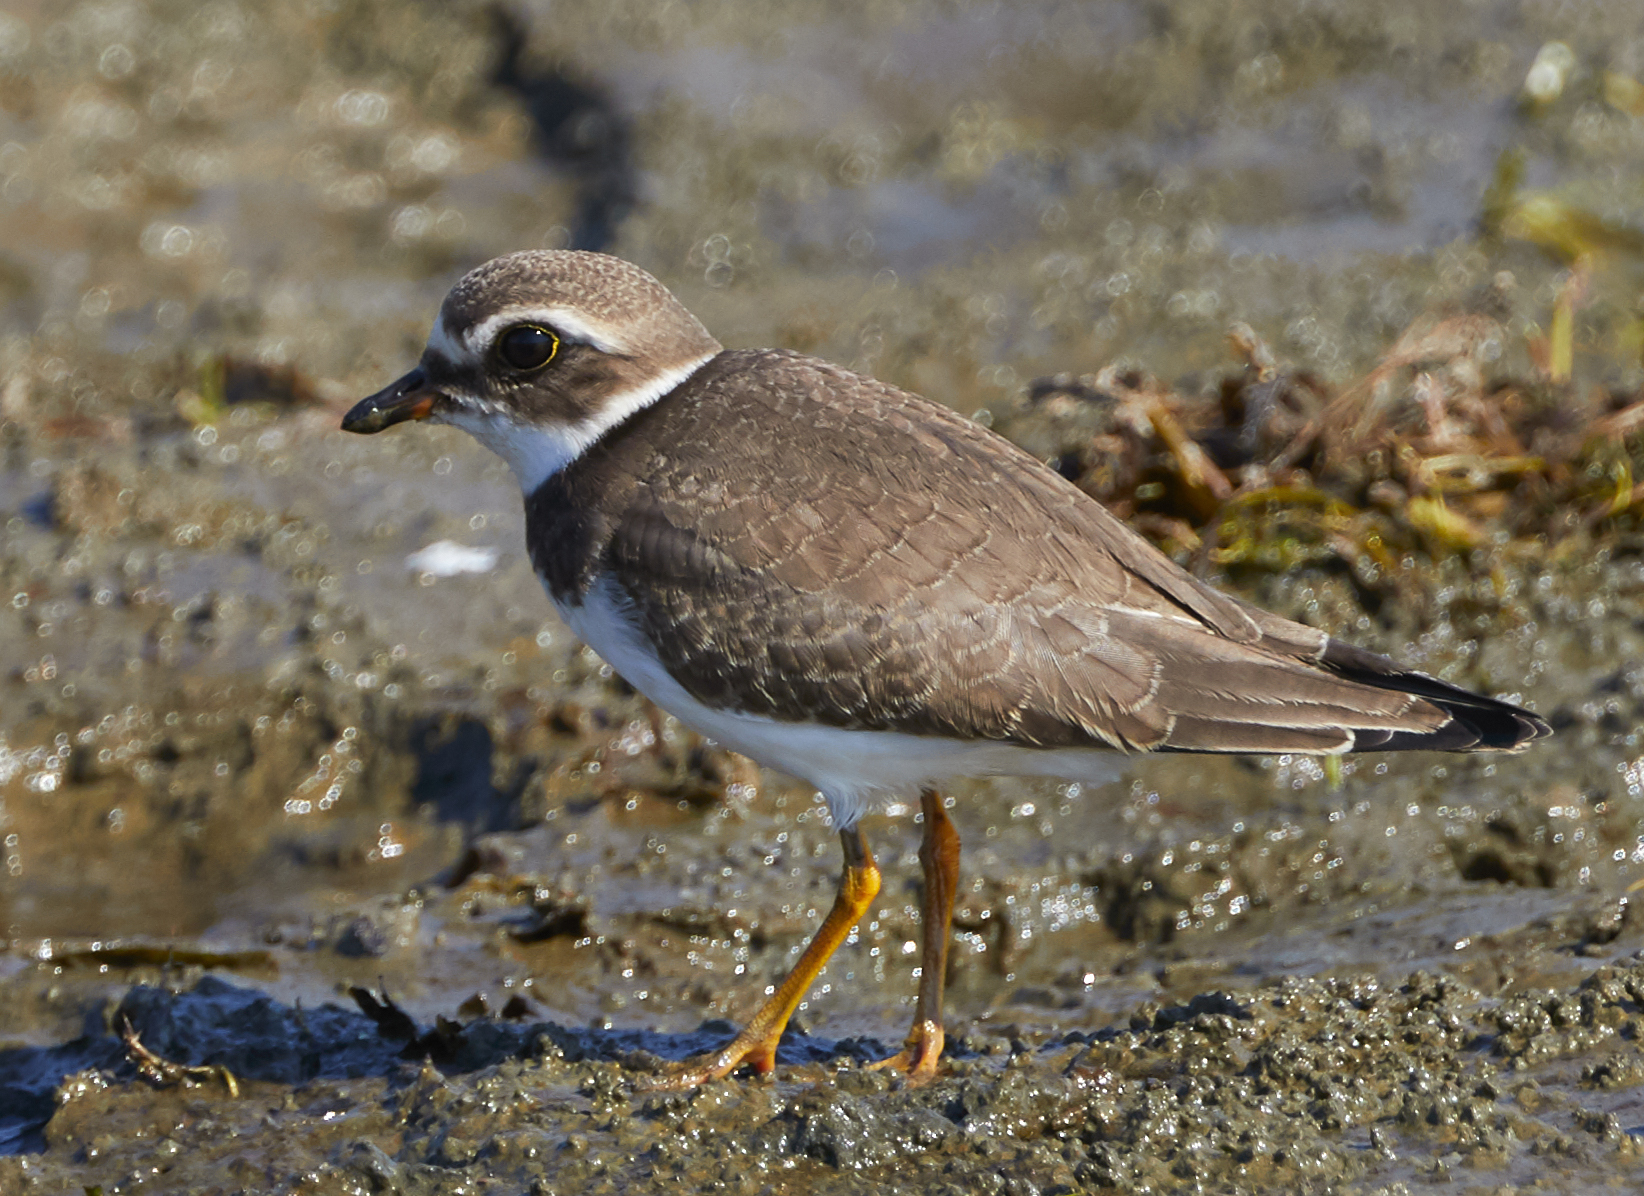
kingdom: Animalia
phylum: Chordata
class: Aves
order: Charadriiformes
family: Charadriidae
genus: Charadrius
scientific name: Charadrius semipalmatus
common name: Semipalmated plover
